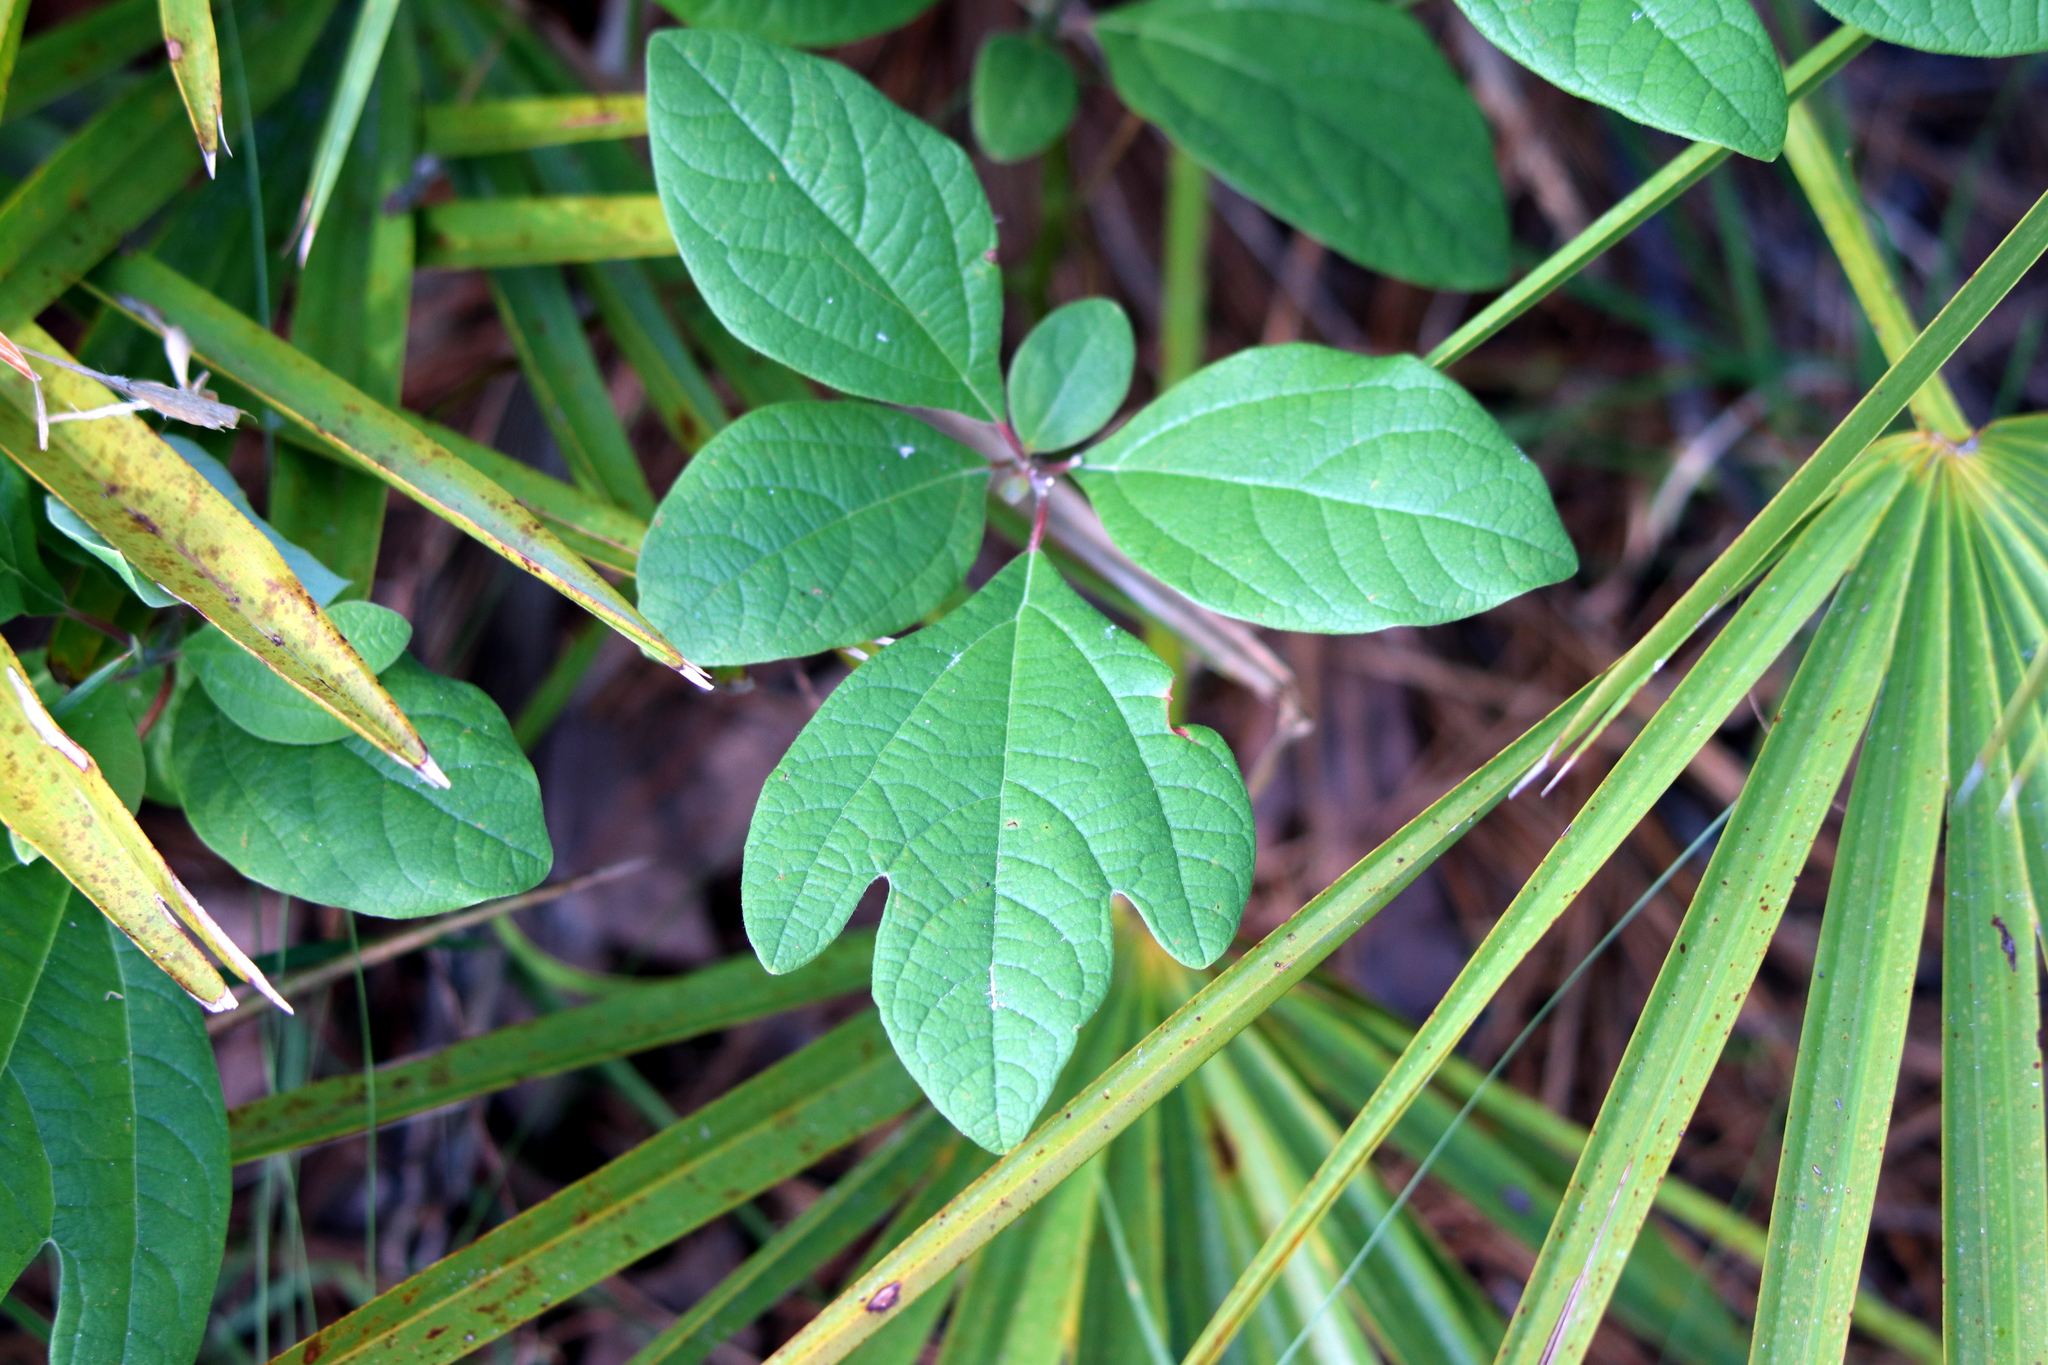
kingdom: Plantae
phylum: Tracheophyta
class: Magnoliopsida
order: Laurales
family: Lauraceae
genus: Sassafras
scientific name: Sassafras albidum
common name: Sassafras
